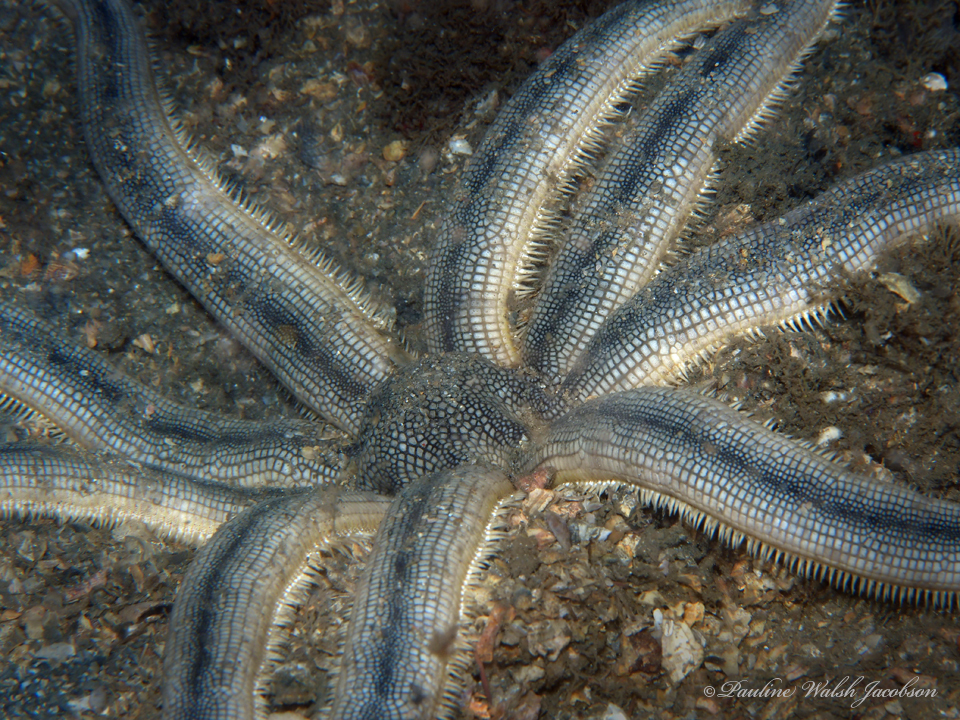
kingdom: Animalia
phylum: Echinodermata
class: Asteroidea
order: Paxillosida
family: Luidiidae
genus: Luidia
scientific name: Luidia senegalensis
